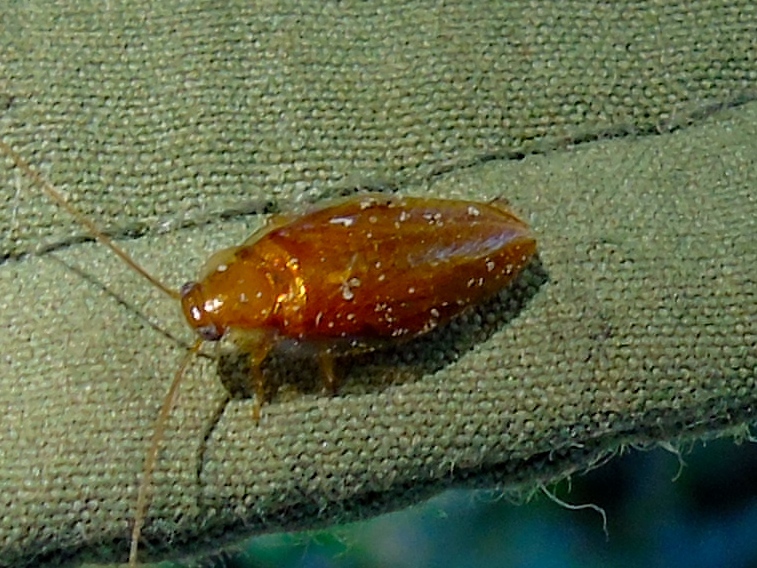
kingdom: Animalia
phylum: Arthropoda
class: Insecta
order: Blattodea
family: Anaplectidae
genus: Anaplecta
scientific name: Anaplecta saussurei
